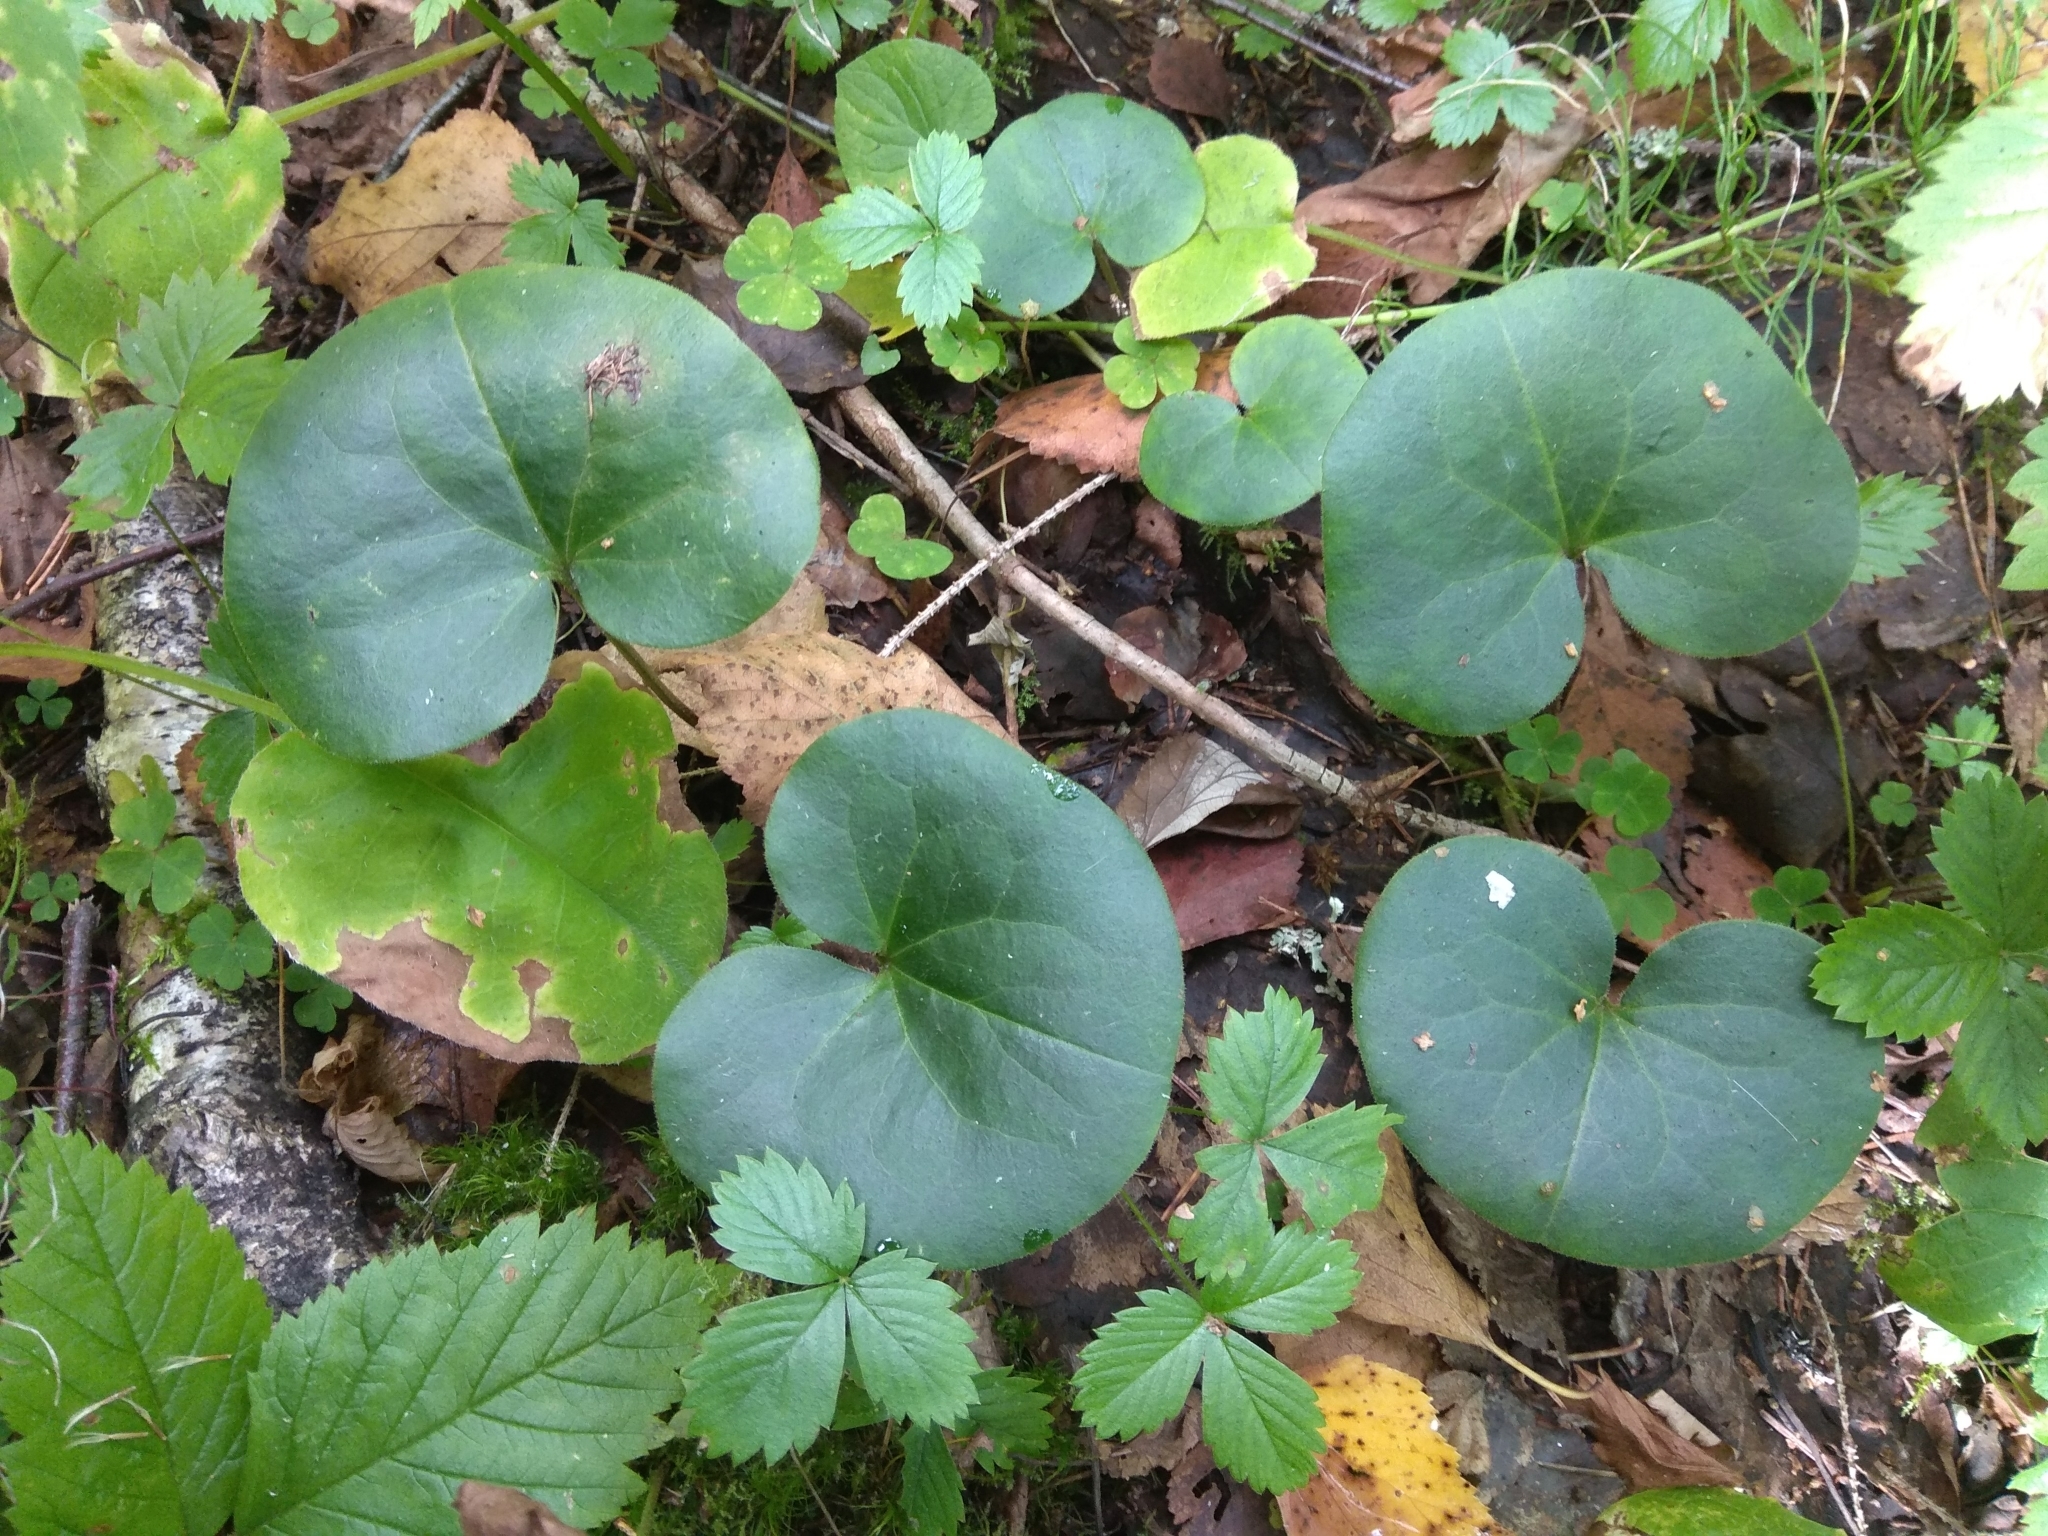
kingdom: Plantae
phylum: Tracheophyta
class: Magnoliopsida
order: Piperales
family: Aristolochiaceae
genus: Asarum
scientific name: Asarum europaeum
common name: Asarabacca
